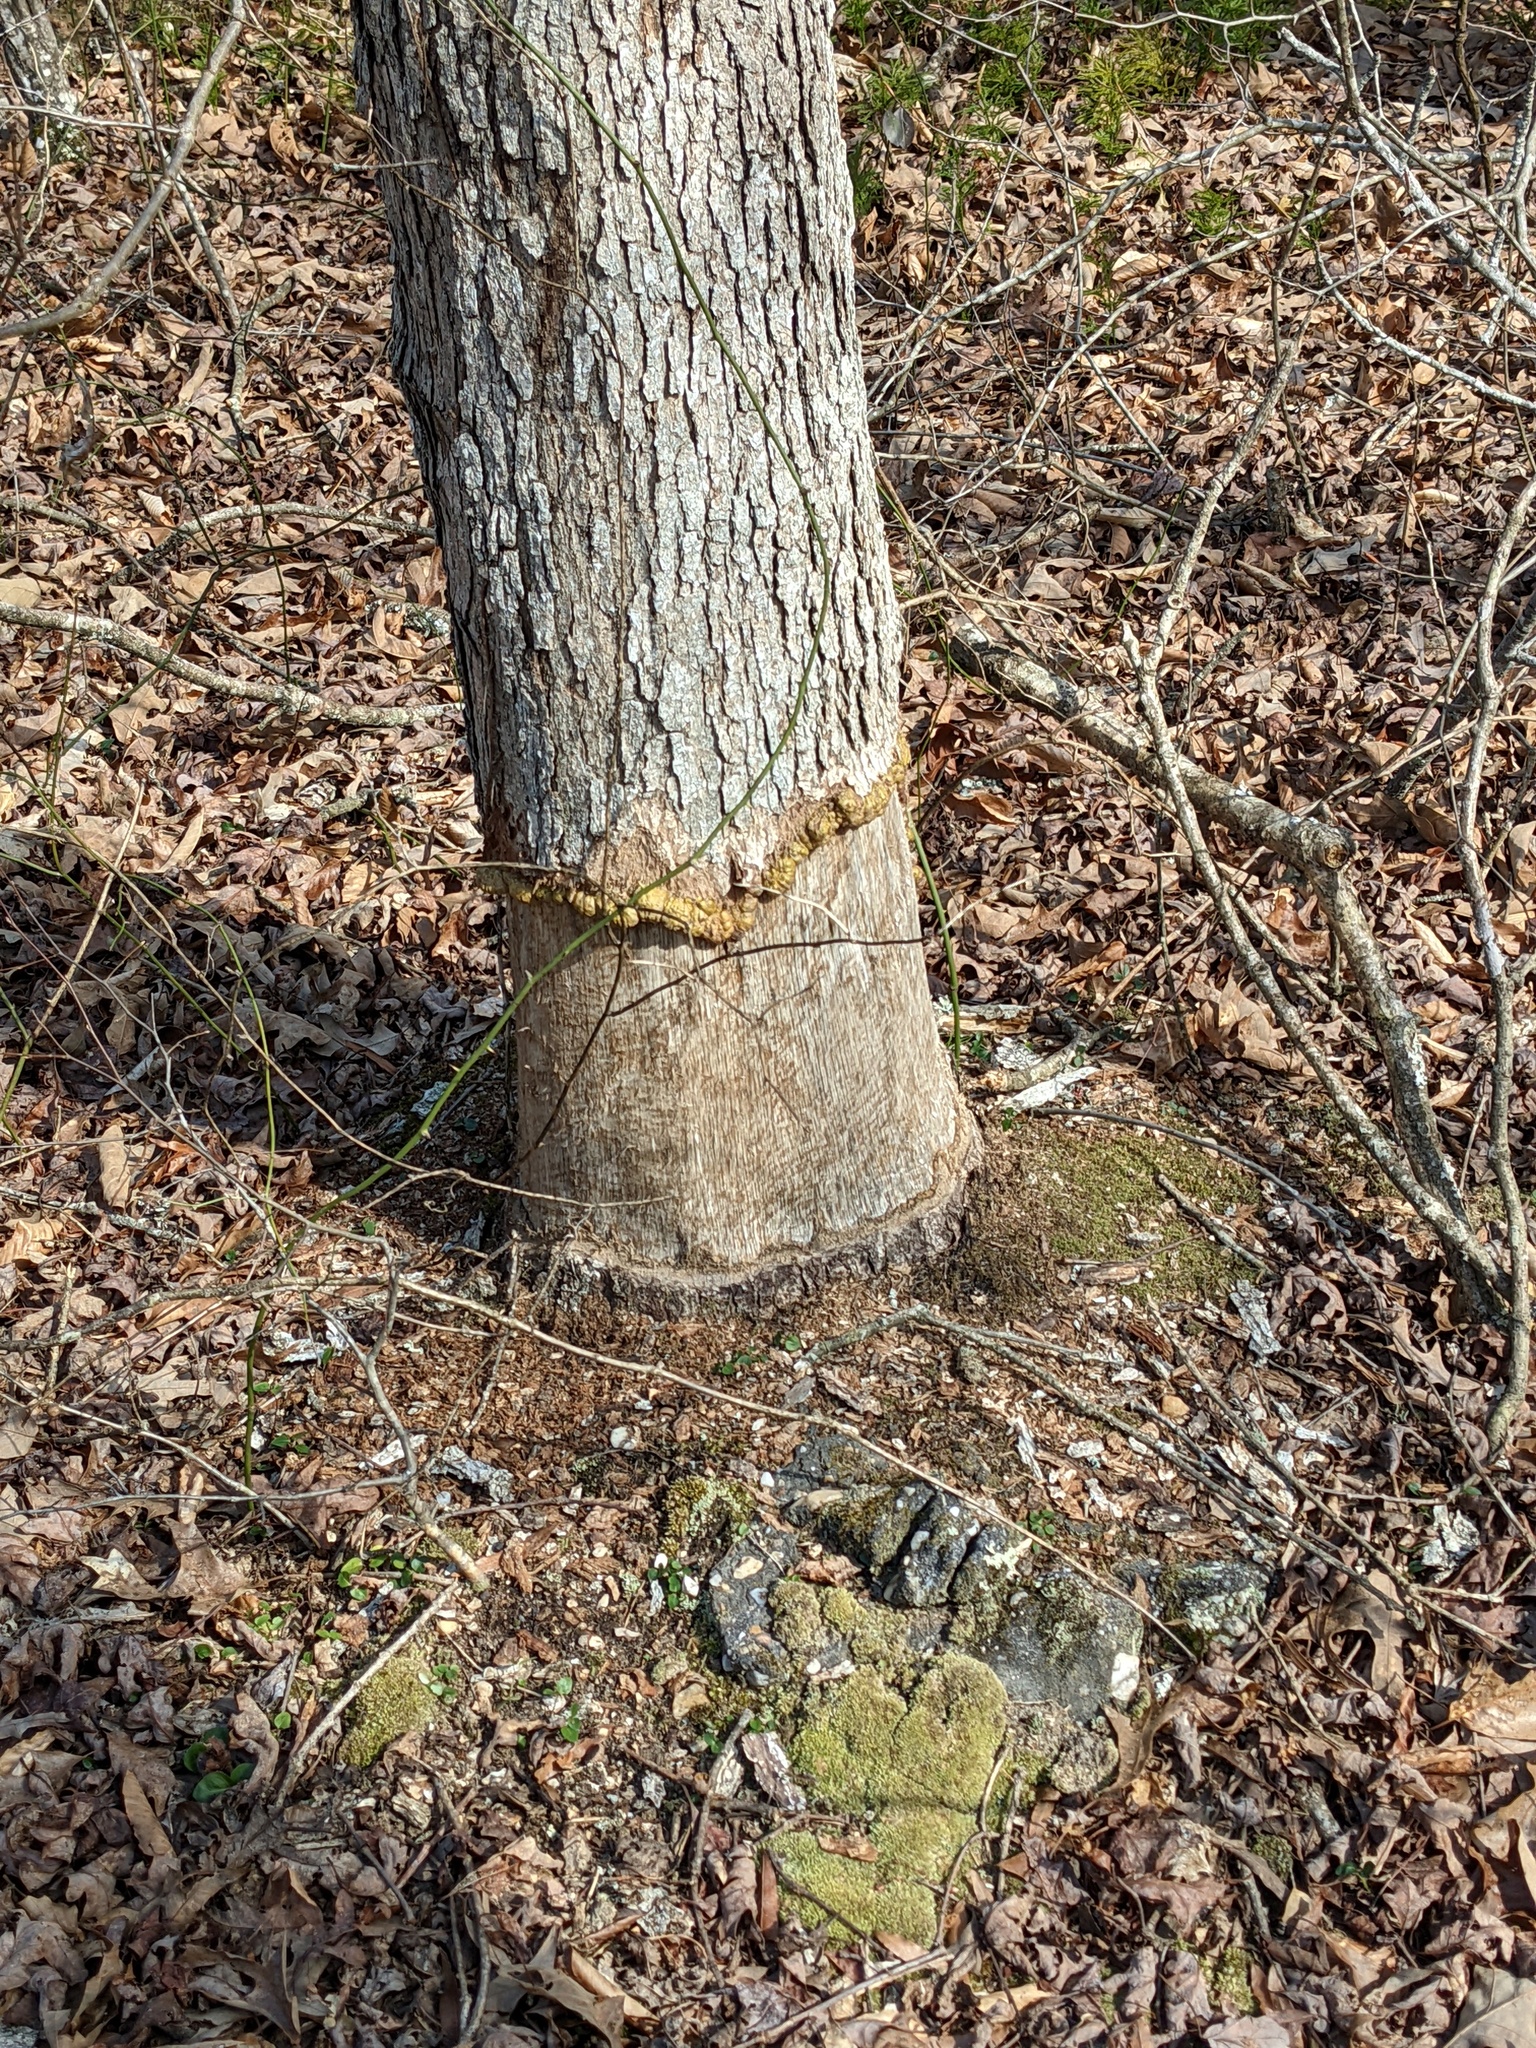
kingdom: Animalia
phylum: Chordata
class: Mammalia
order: Rodentia
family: Castoridae
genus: Castor
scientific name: Castor canadensis
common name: American beaver
